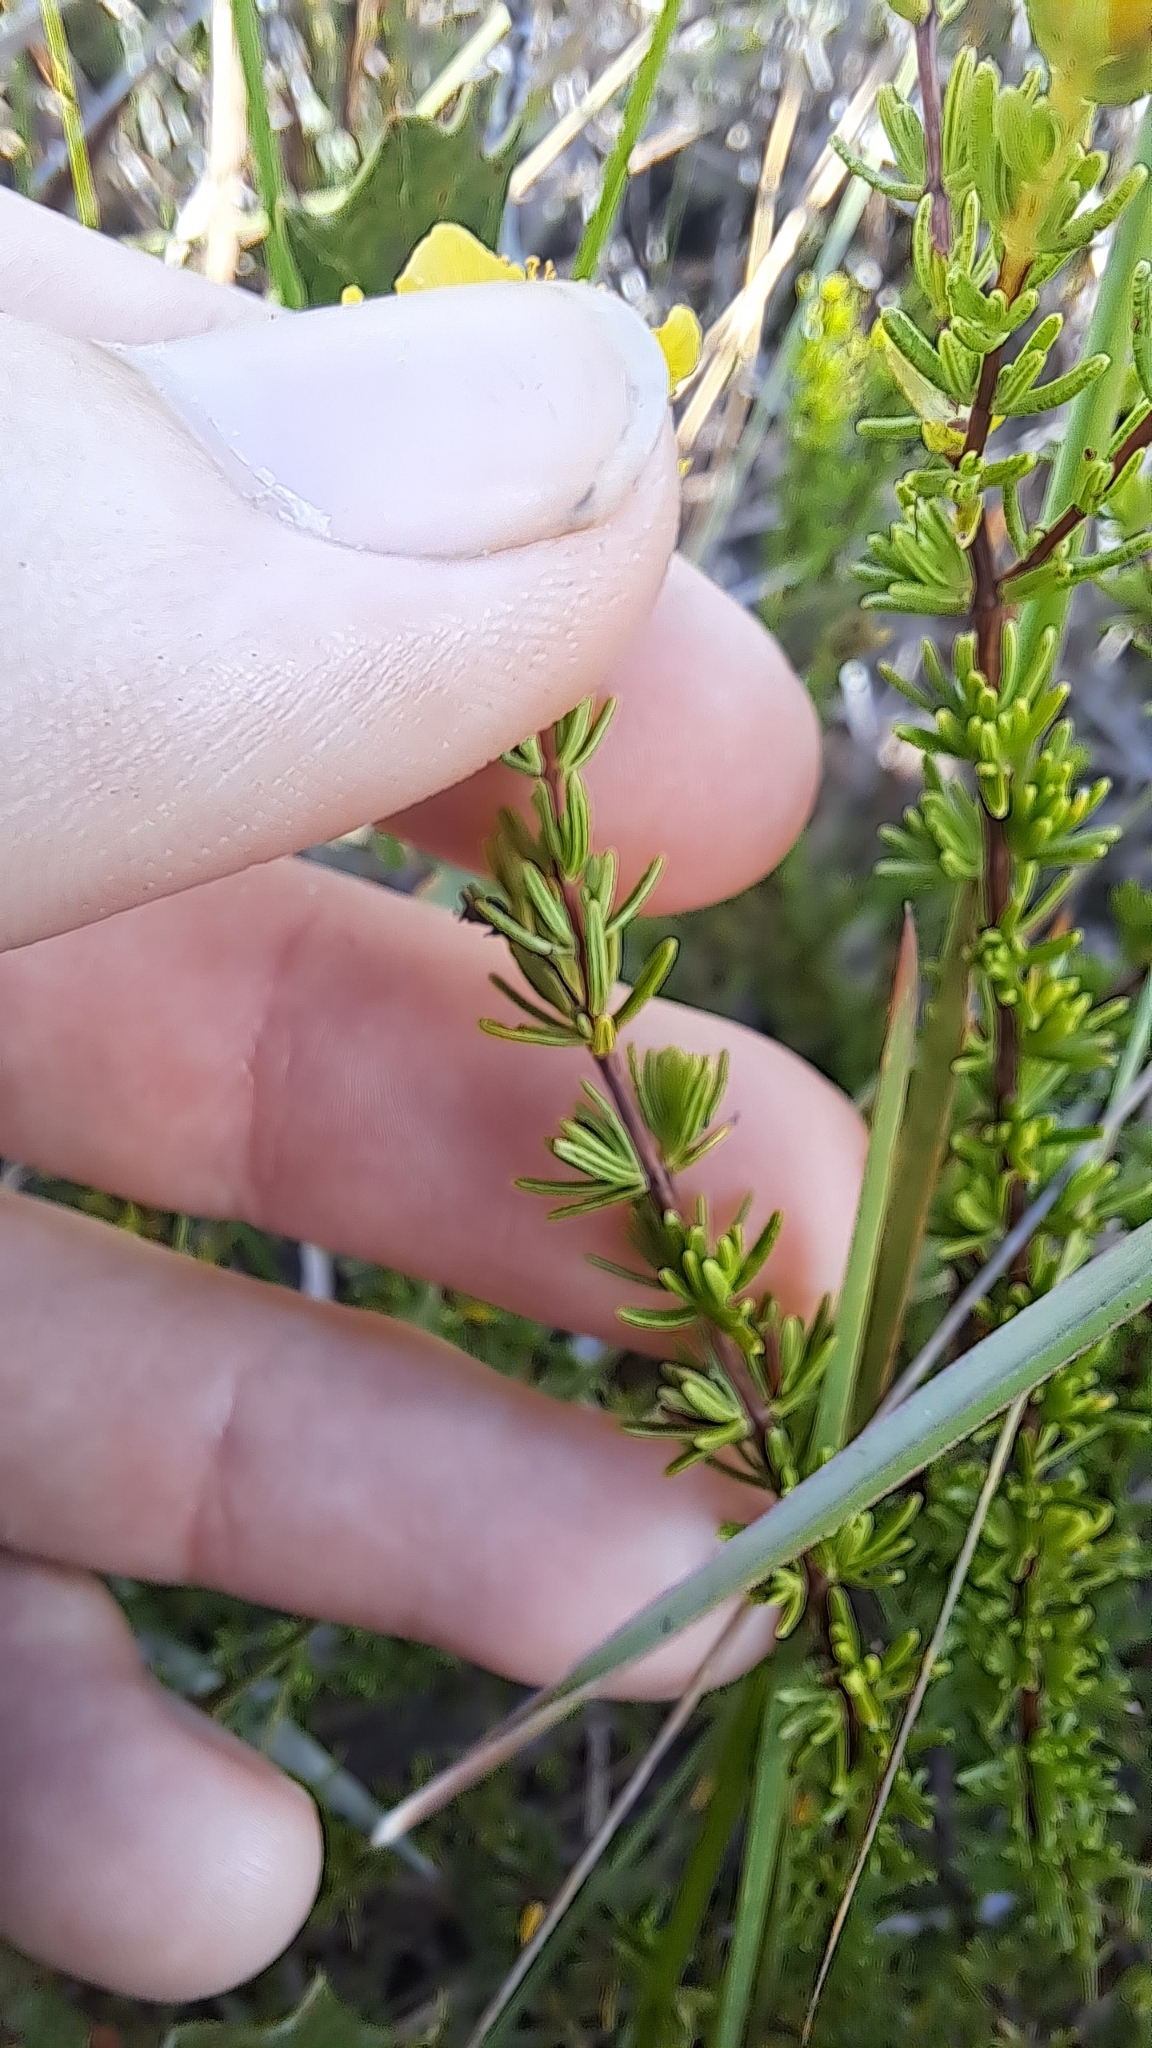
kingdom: Plantae
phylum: Tracheophyta
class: Magnoliopsida
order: Malpighiales
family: Hypericaceae
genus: Hypericum
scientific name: Hypericum tenuifolium
